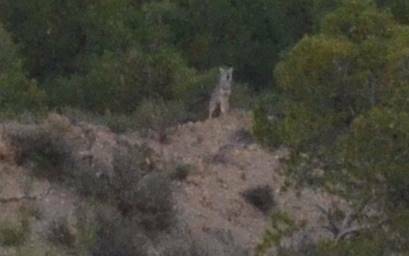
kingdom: Animalia
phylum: Chordata
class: Mammalia
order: Carnivora
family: Canidae
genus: Canis
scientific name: Canis lupaster
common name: African golden wolf
